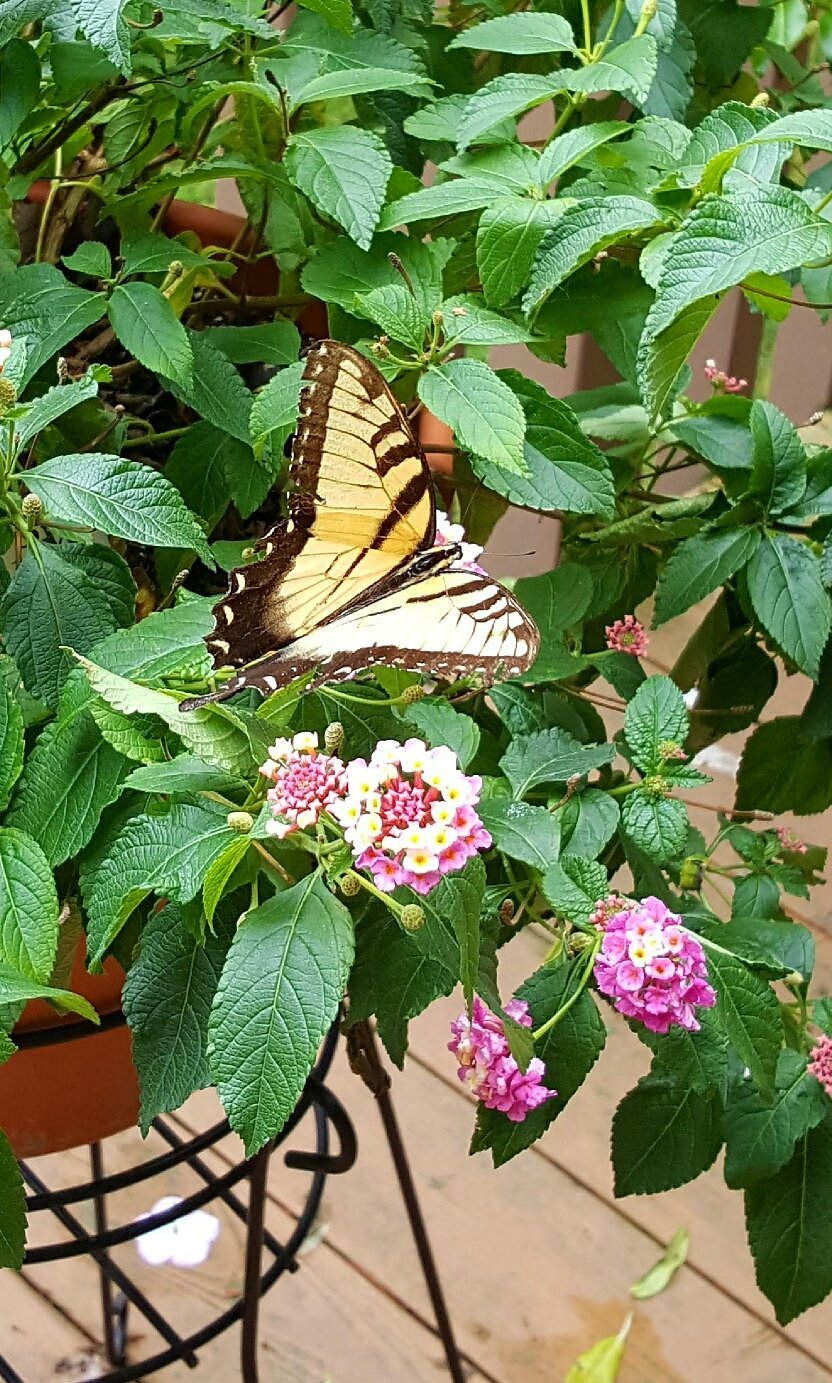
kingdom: Animalia
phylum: Arthropoda
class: Insecta
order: Lepidoptera
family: Papilionidae
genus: Papilio
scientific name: Papilio glaucus
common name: Tiger swallowtail
